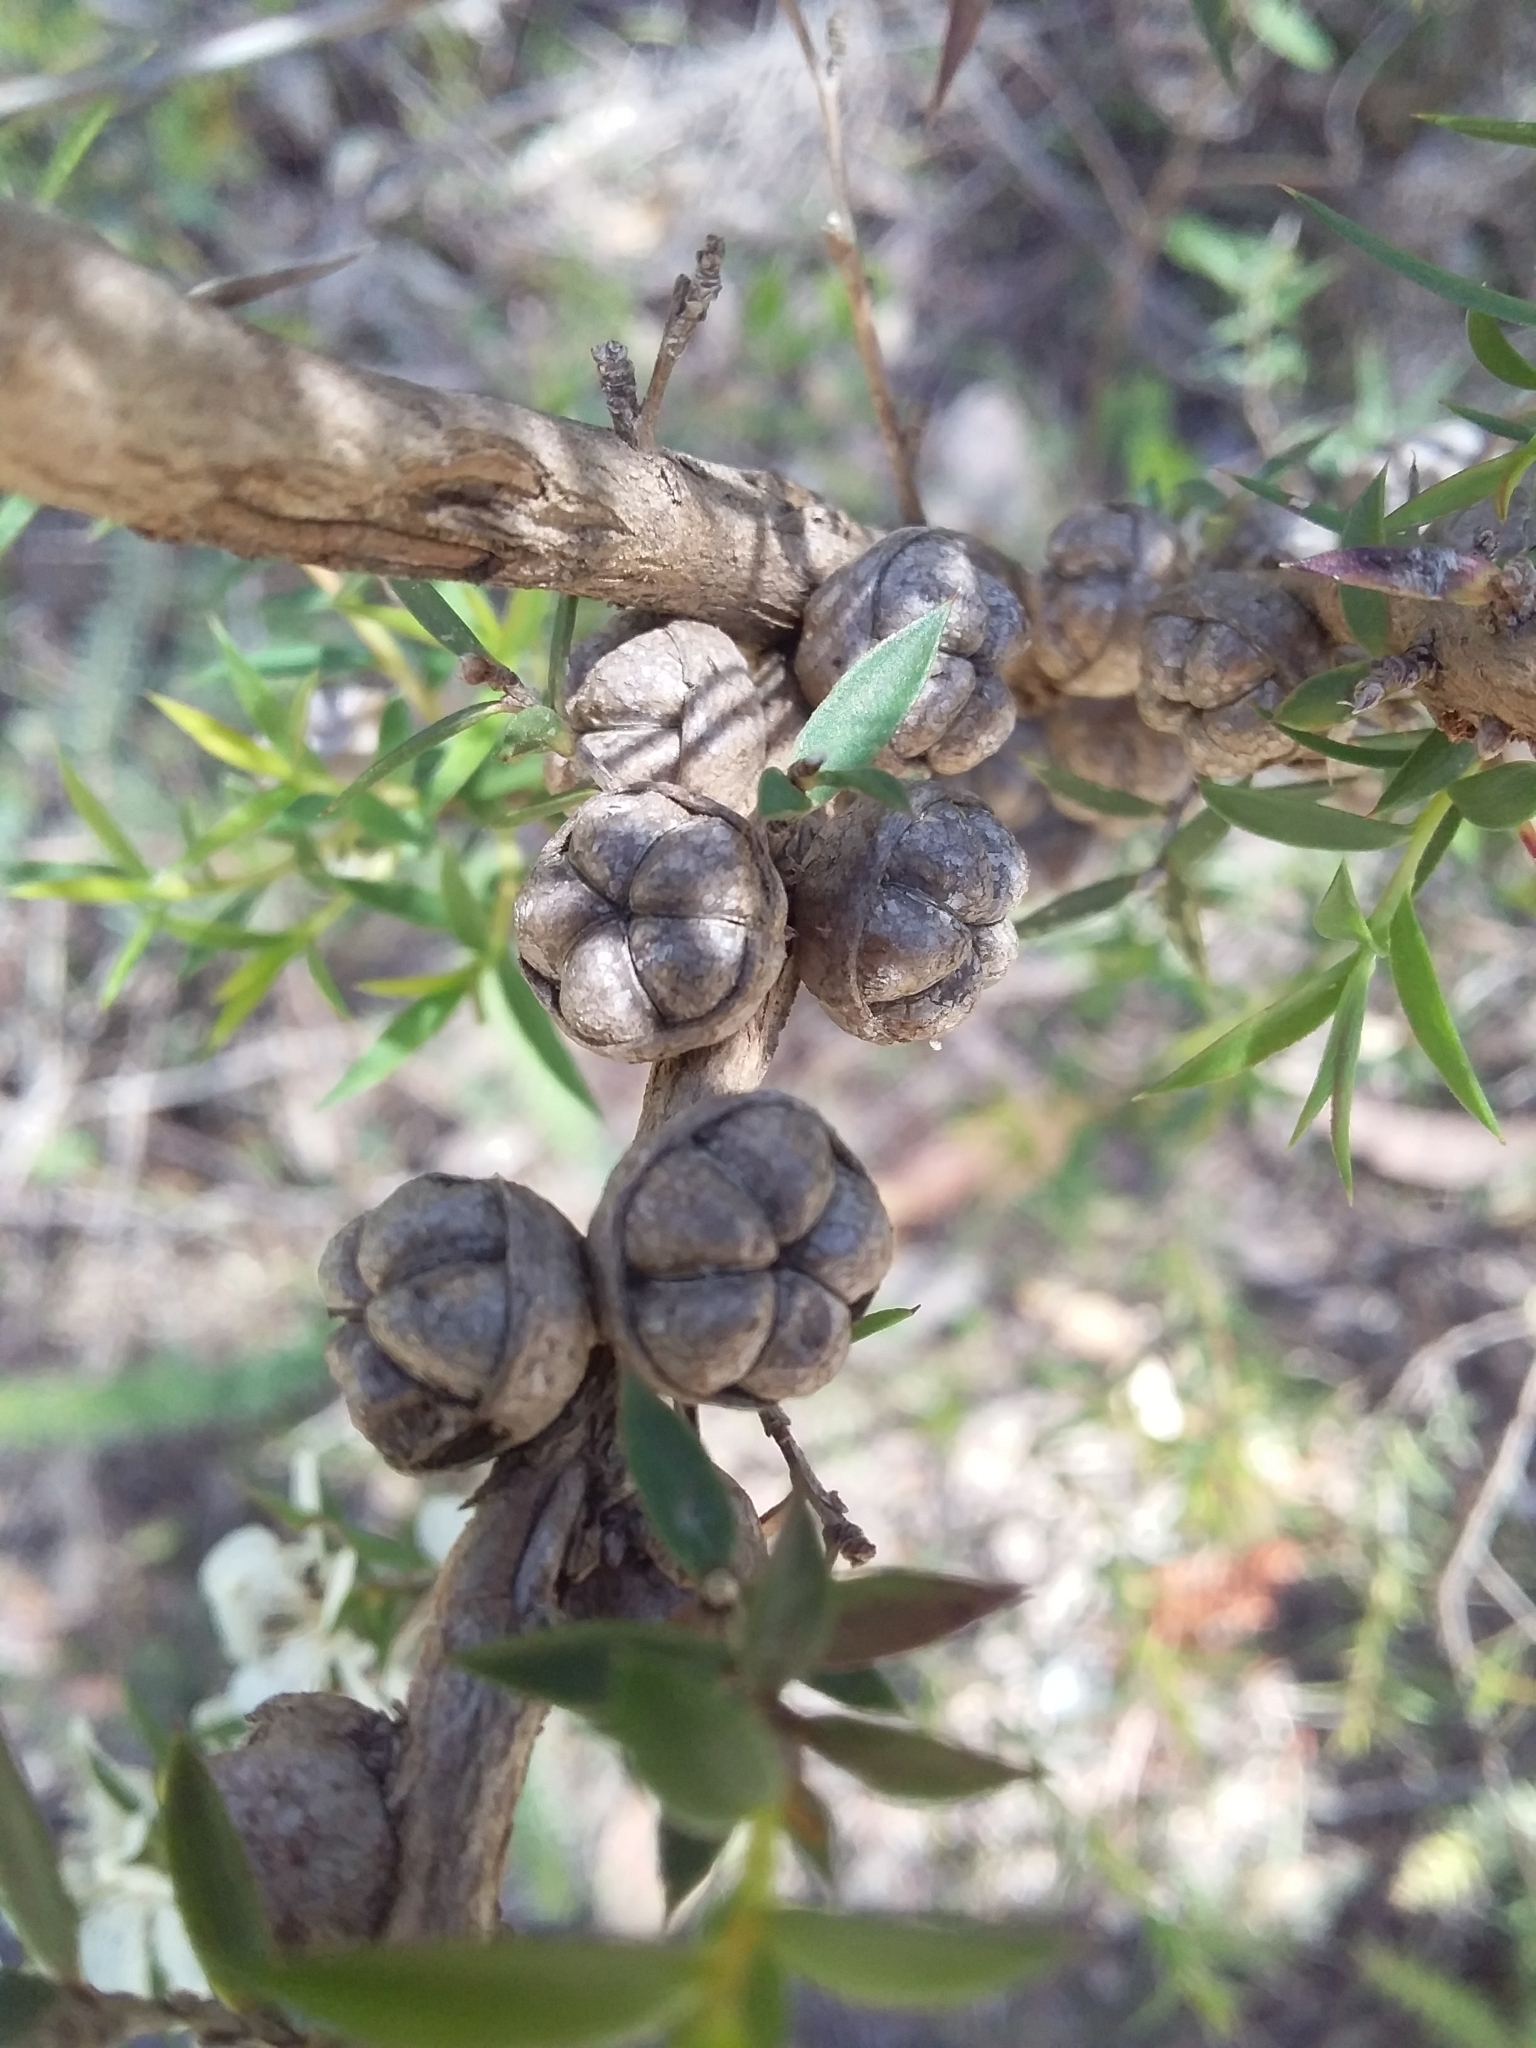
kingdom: Plantae
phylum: Tracheophyta
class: Magnoliopsida
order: Myrtales
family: Myrtaceae
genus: Leptospermum
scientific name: Leptospermum continentale
